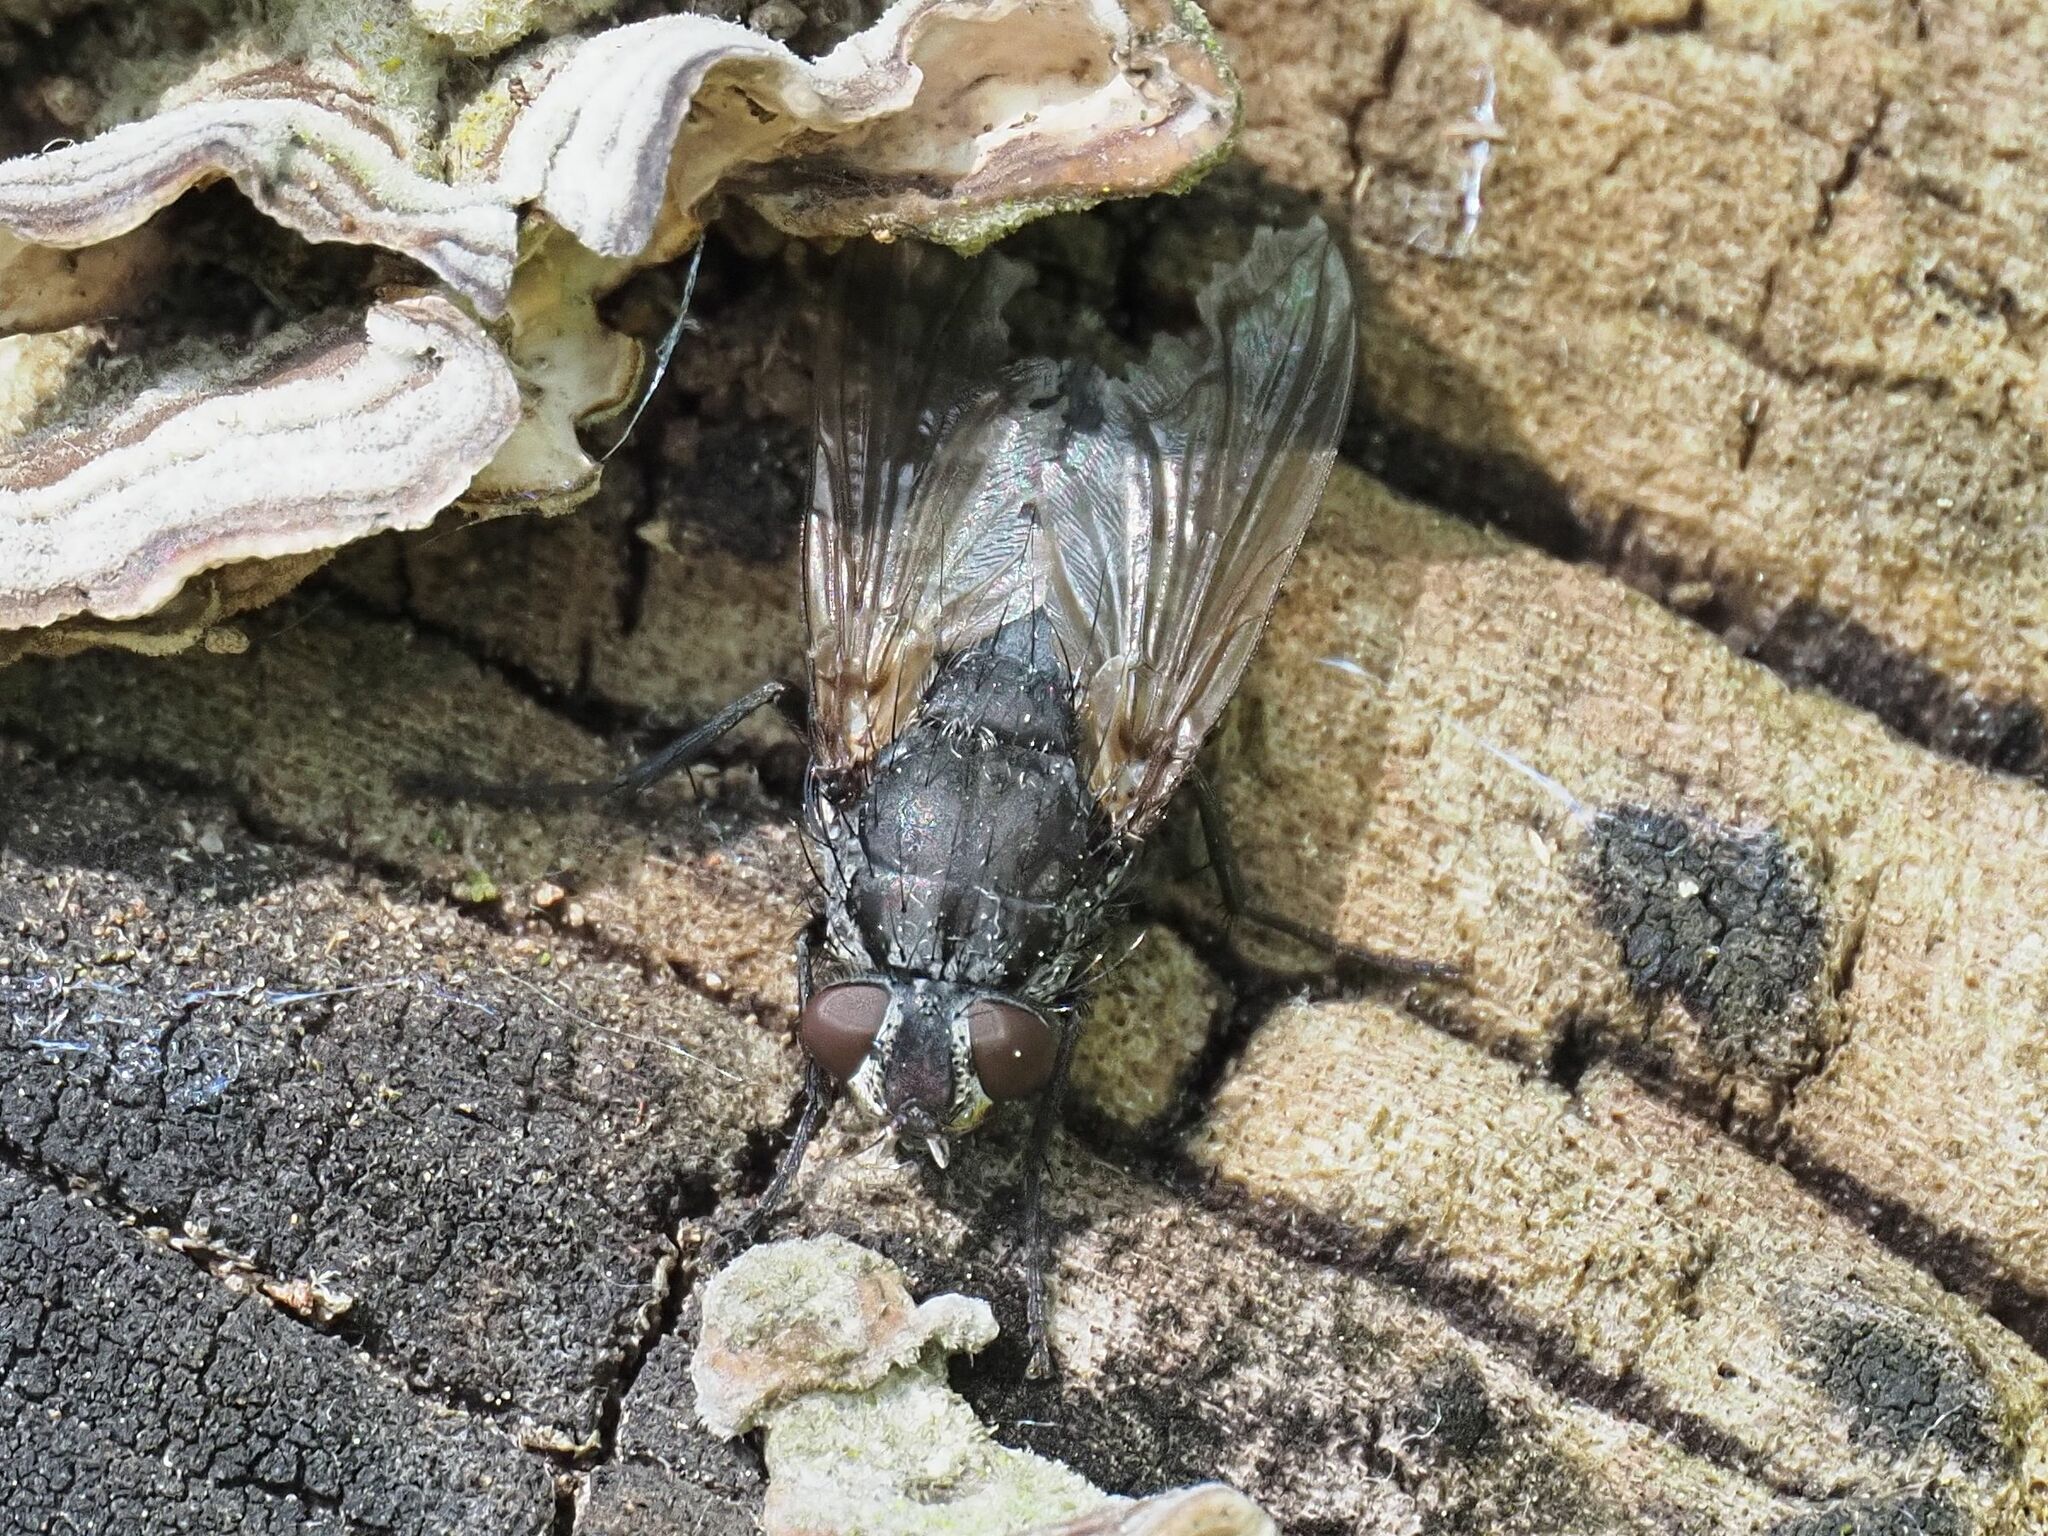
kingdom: Animalia
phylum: Arthropoda
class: Insecta
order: Diptera
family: Polleniidae
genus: Pollenia
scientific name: Pollenia vagabunda
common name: Vagabund cluster fly
